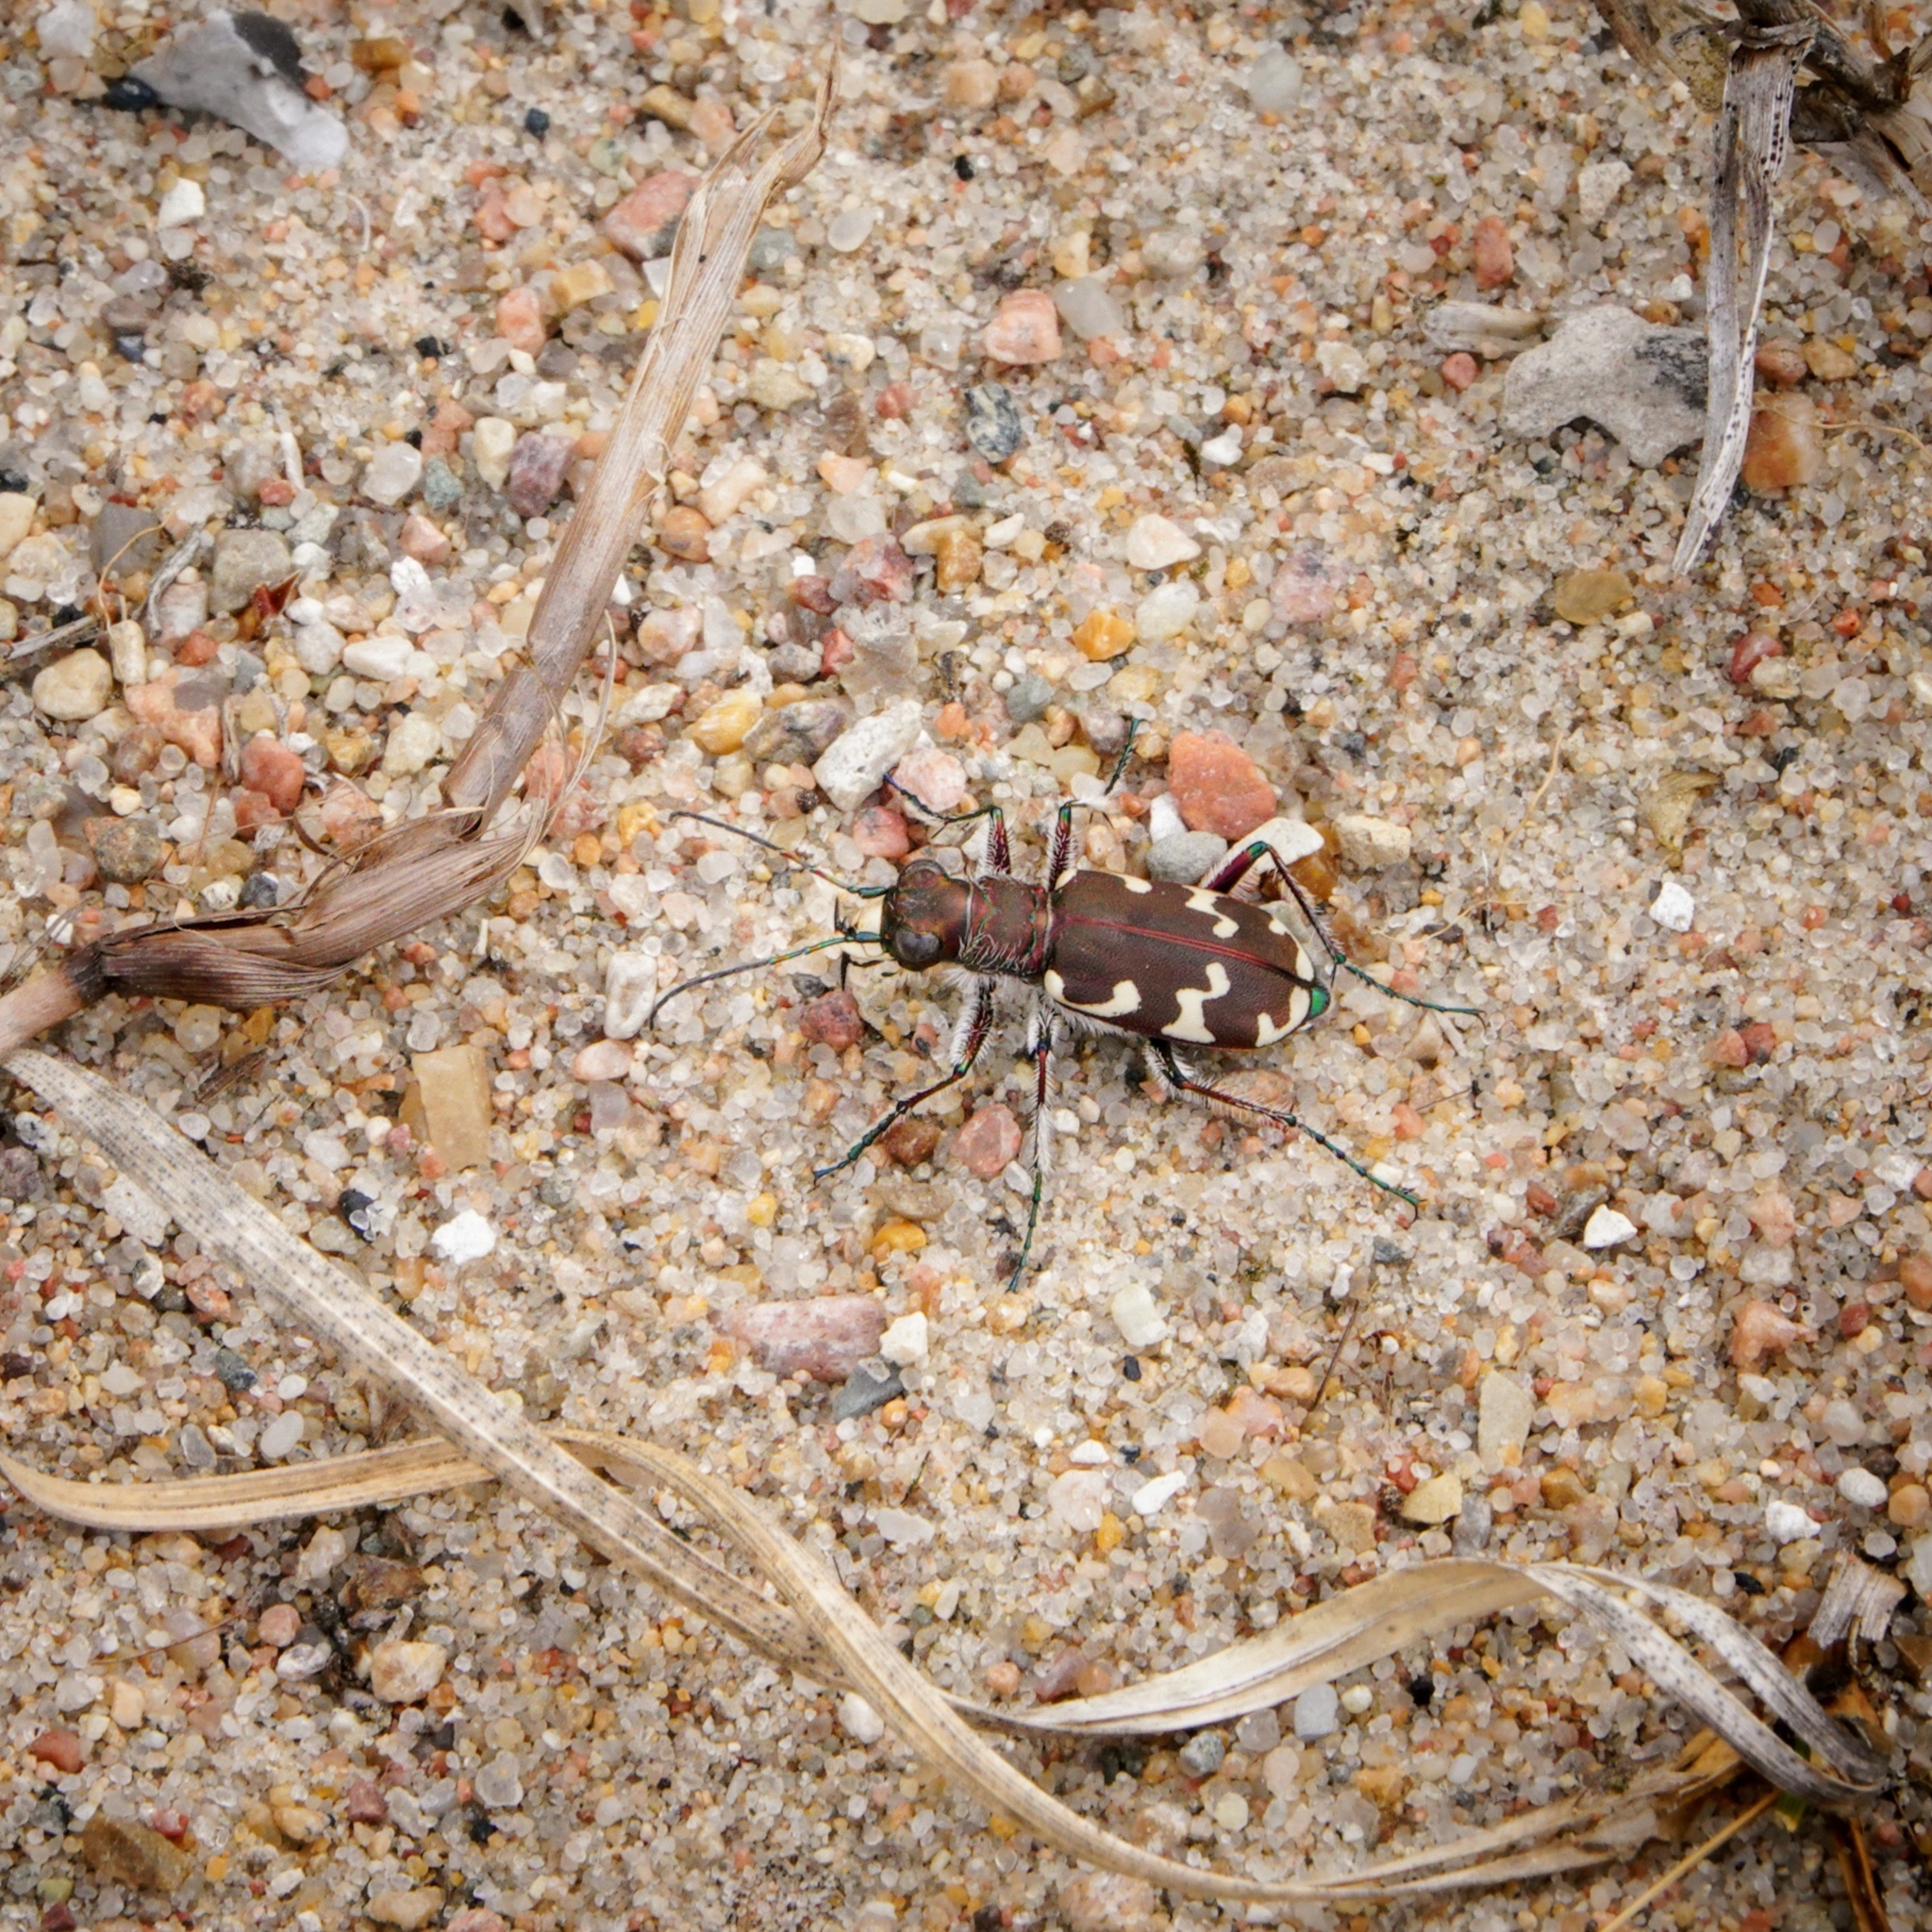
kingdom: Animalia
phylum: Arthropoda
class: Insecta
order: Coleoptera
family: Carabidae
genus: Cicindela
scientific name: Cicindela hybrida
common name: Northern dune tiger beetle
